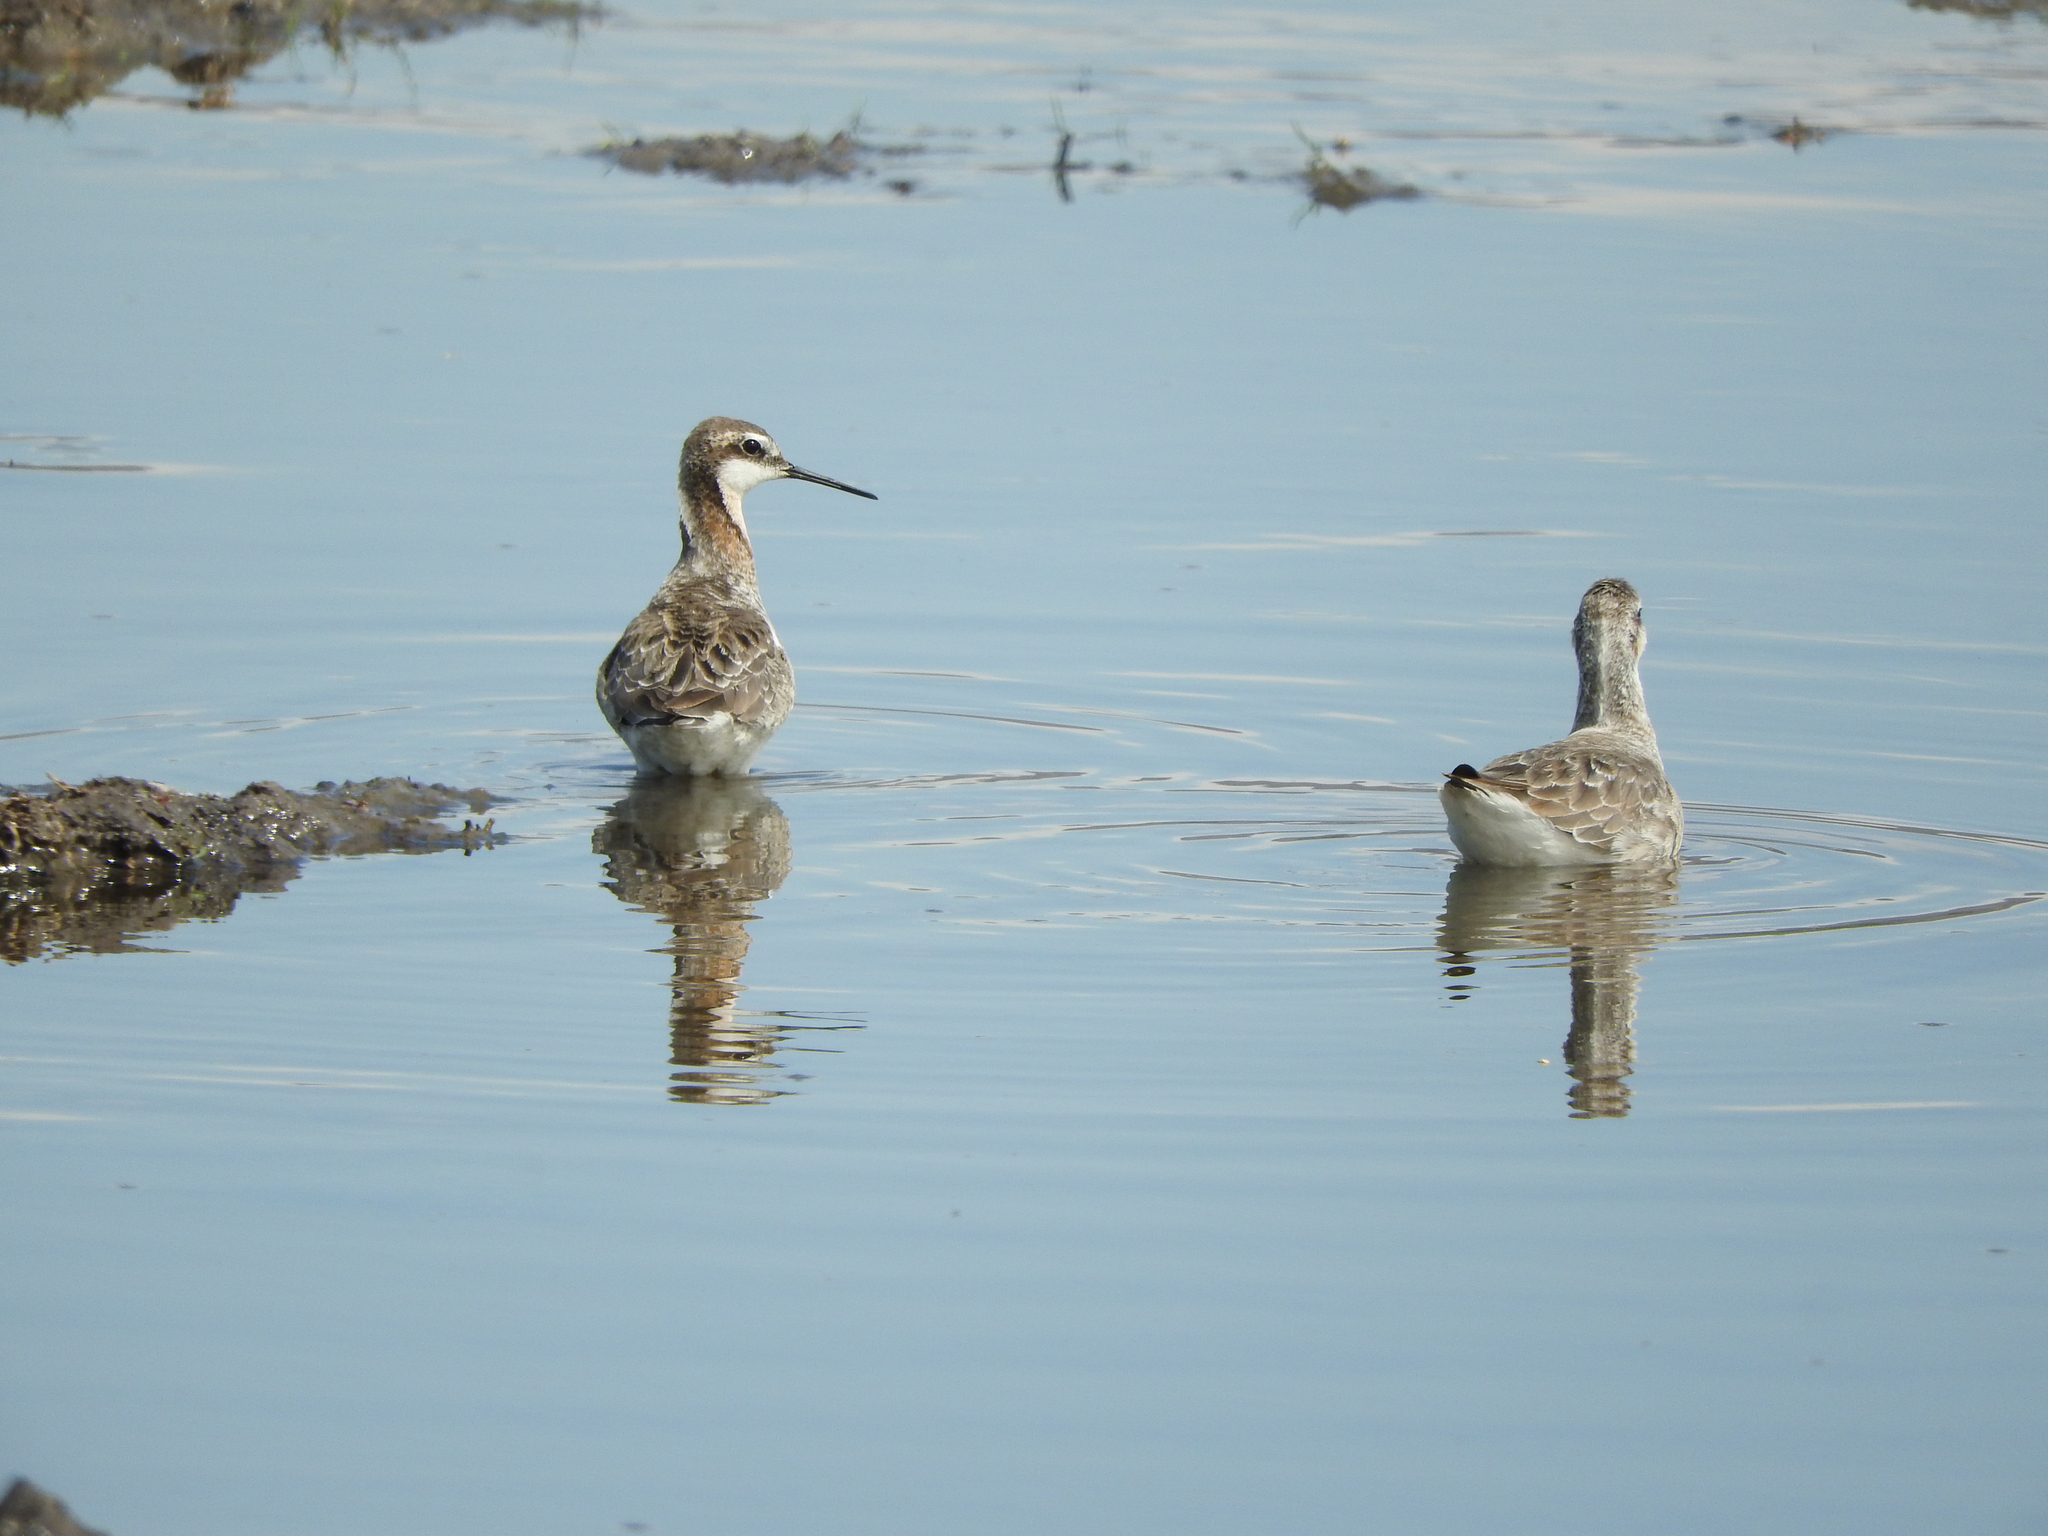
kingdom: Animalia
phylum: Chordata
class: Aves
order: Charadriiformes
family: Scolopacidae
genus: Phalaropus
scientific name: Phalaropus tricolor
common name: Wilson's phalarope
